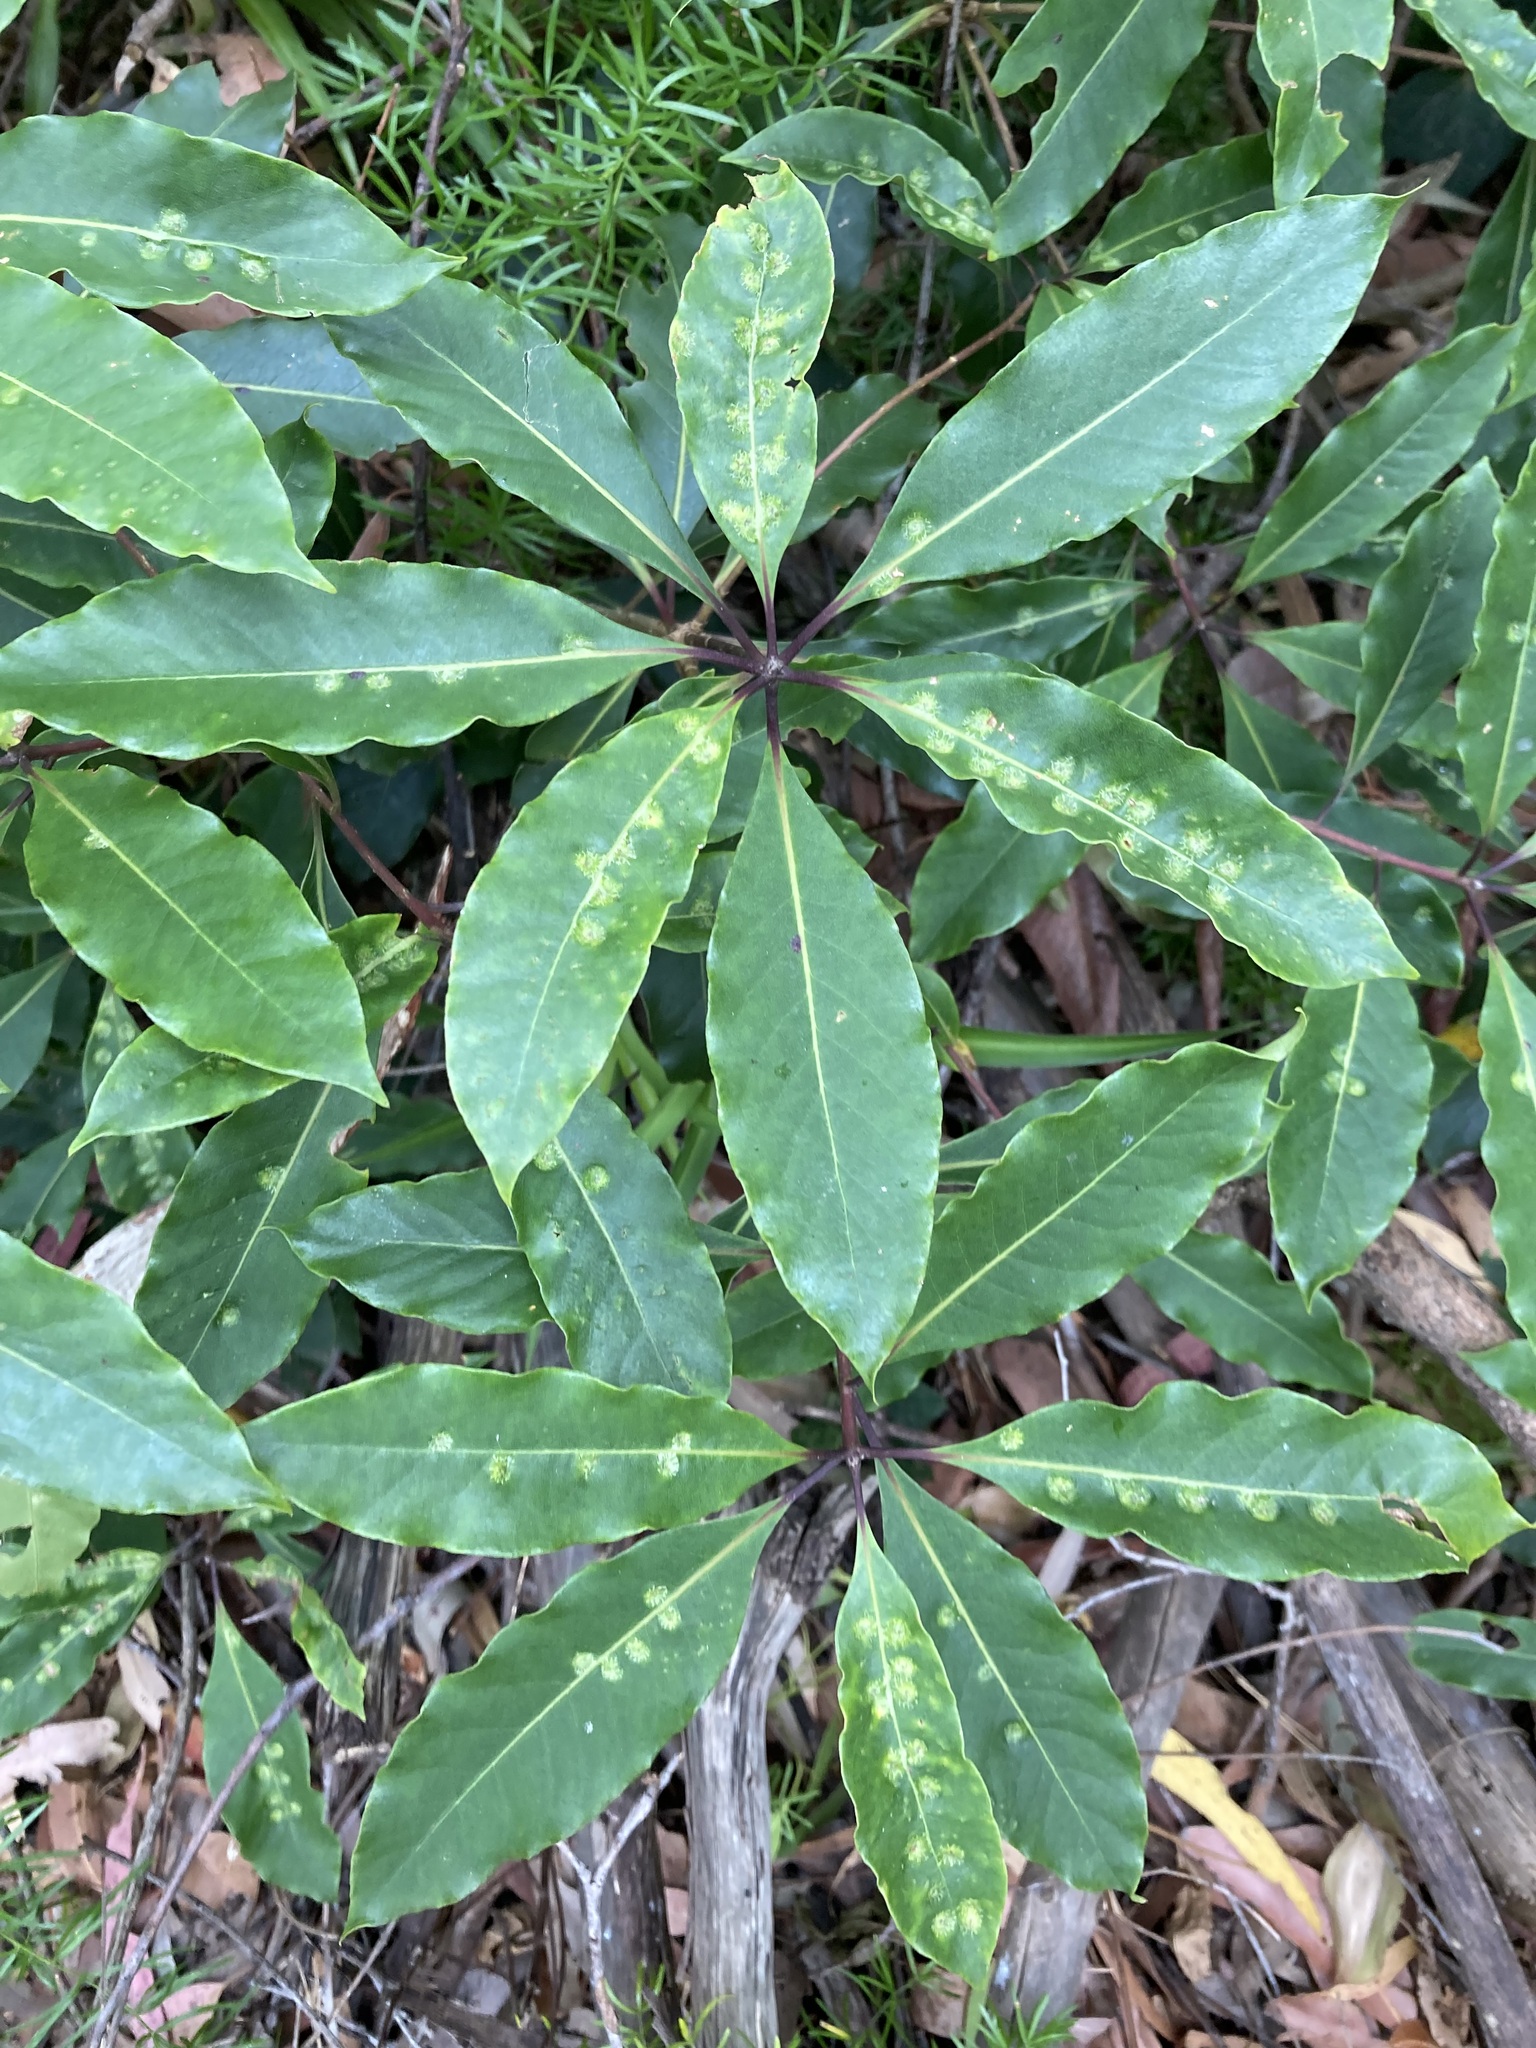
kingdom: Animalia
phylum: Arthropoda
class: Insecta
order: Diptera
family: Agromyzidae
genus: Phytoliriomyza
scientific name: Phytoliriomyza pittosporophylli
